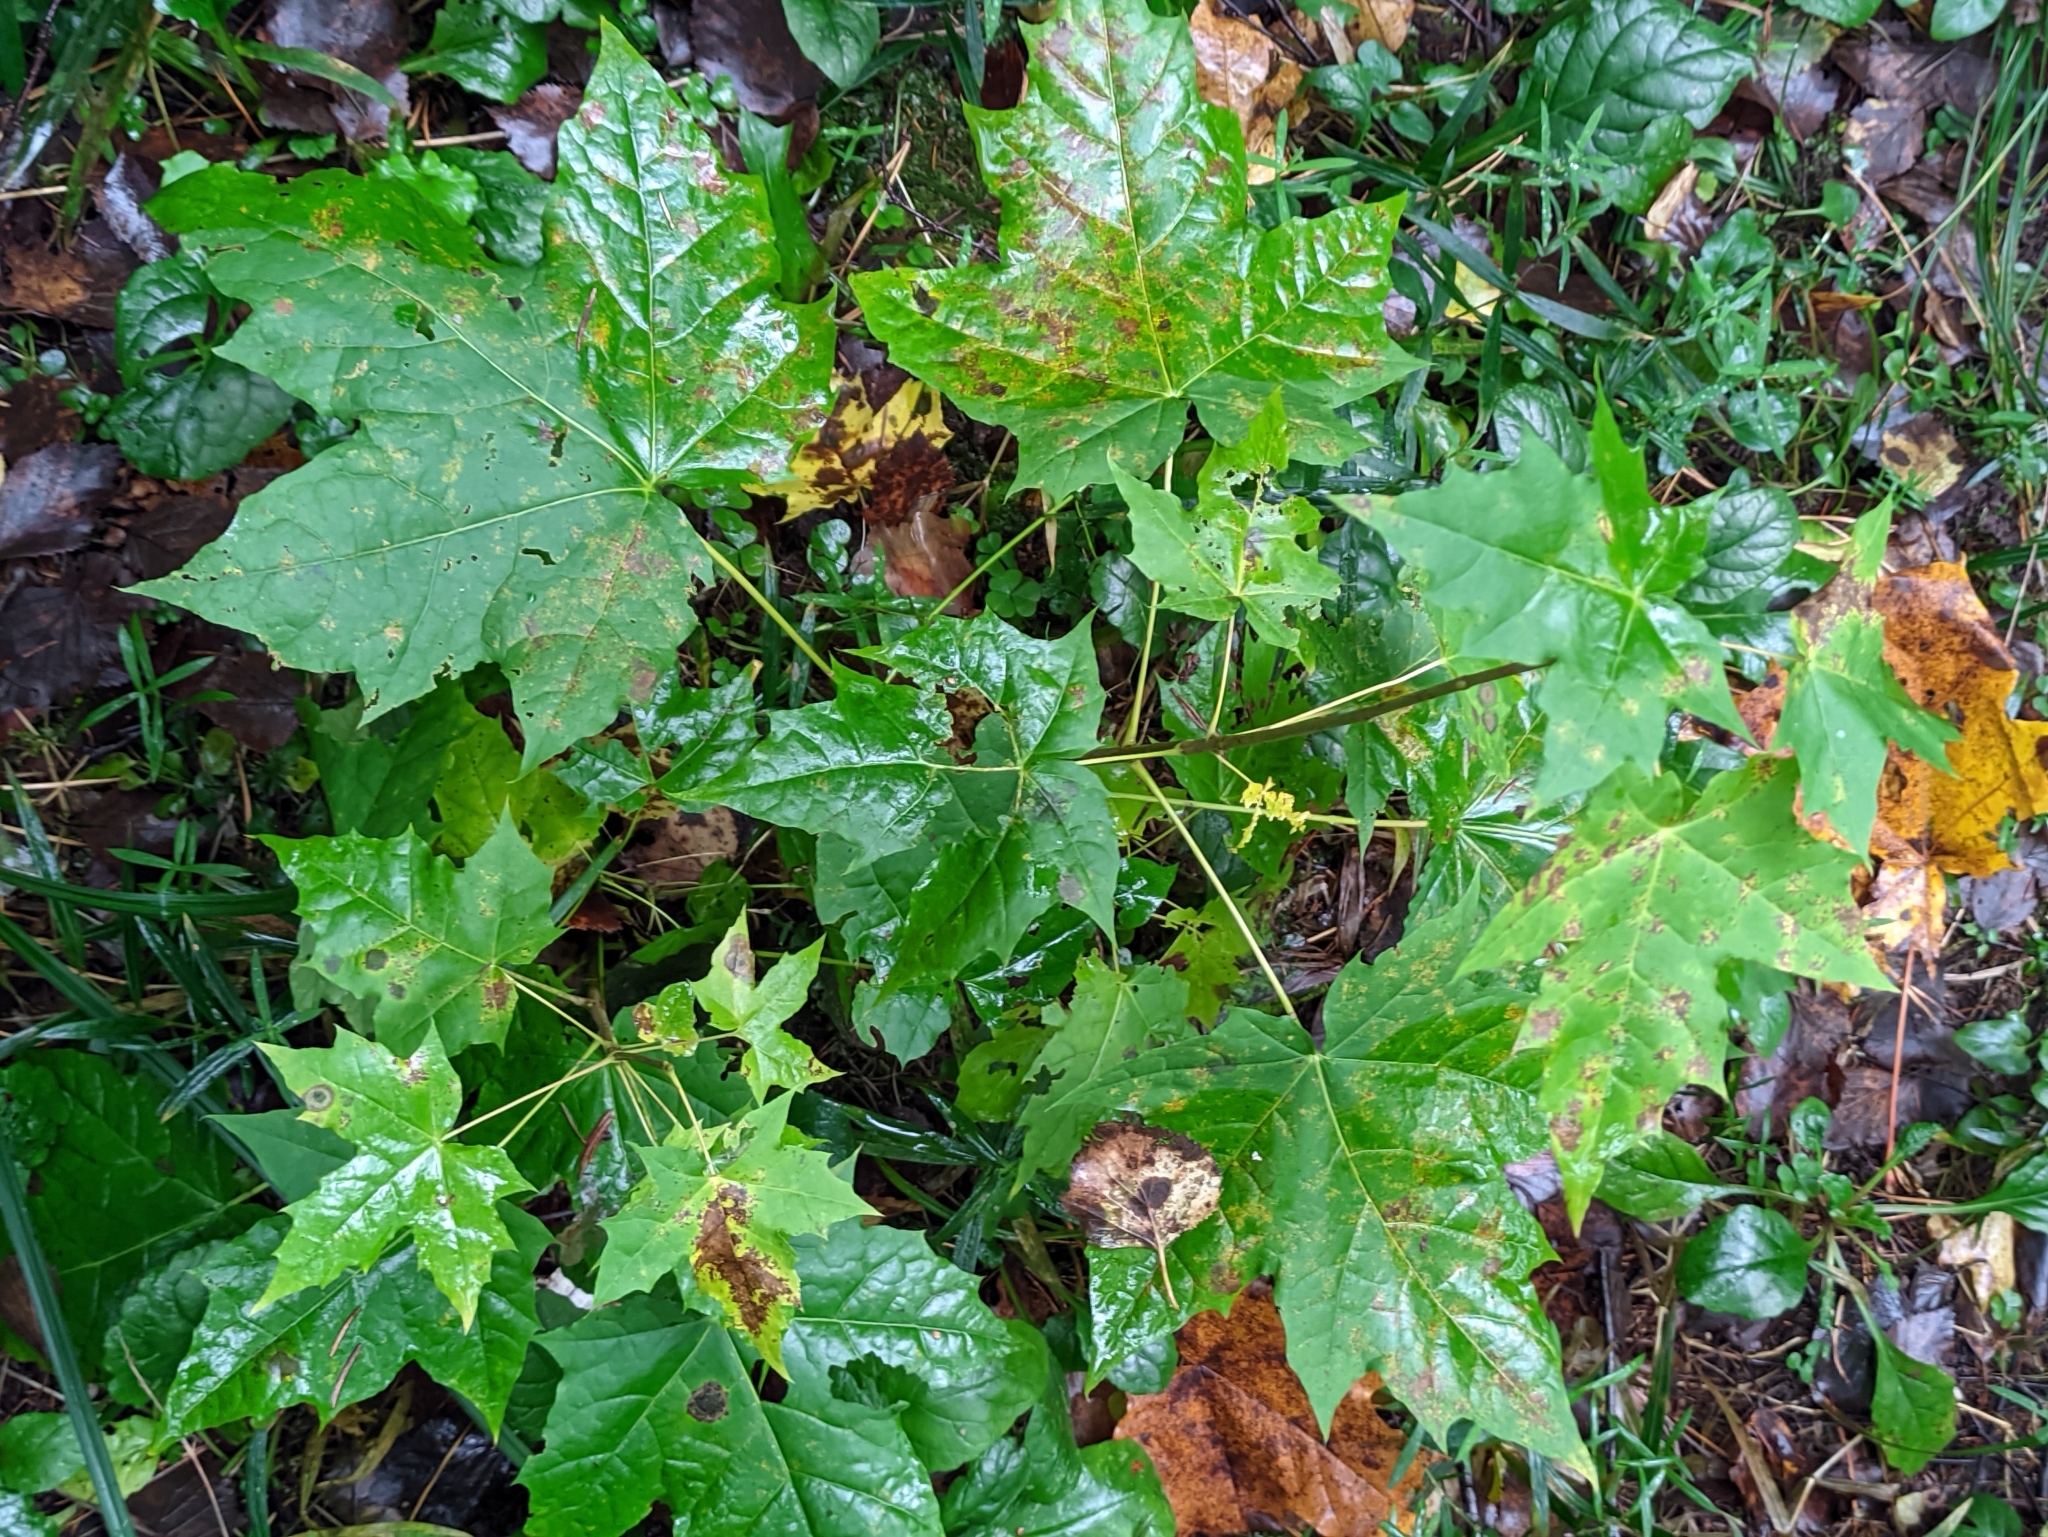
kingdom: Plantae
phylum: Tracheophyta
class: Magnoliopsida
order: Sapindales
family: Sapindaceae
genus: Acer
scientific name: Acer platanoides
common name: Norway maple
